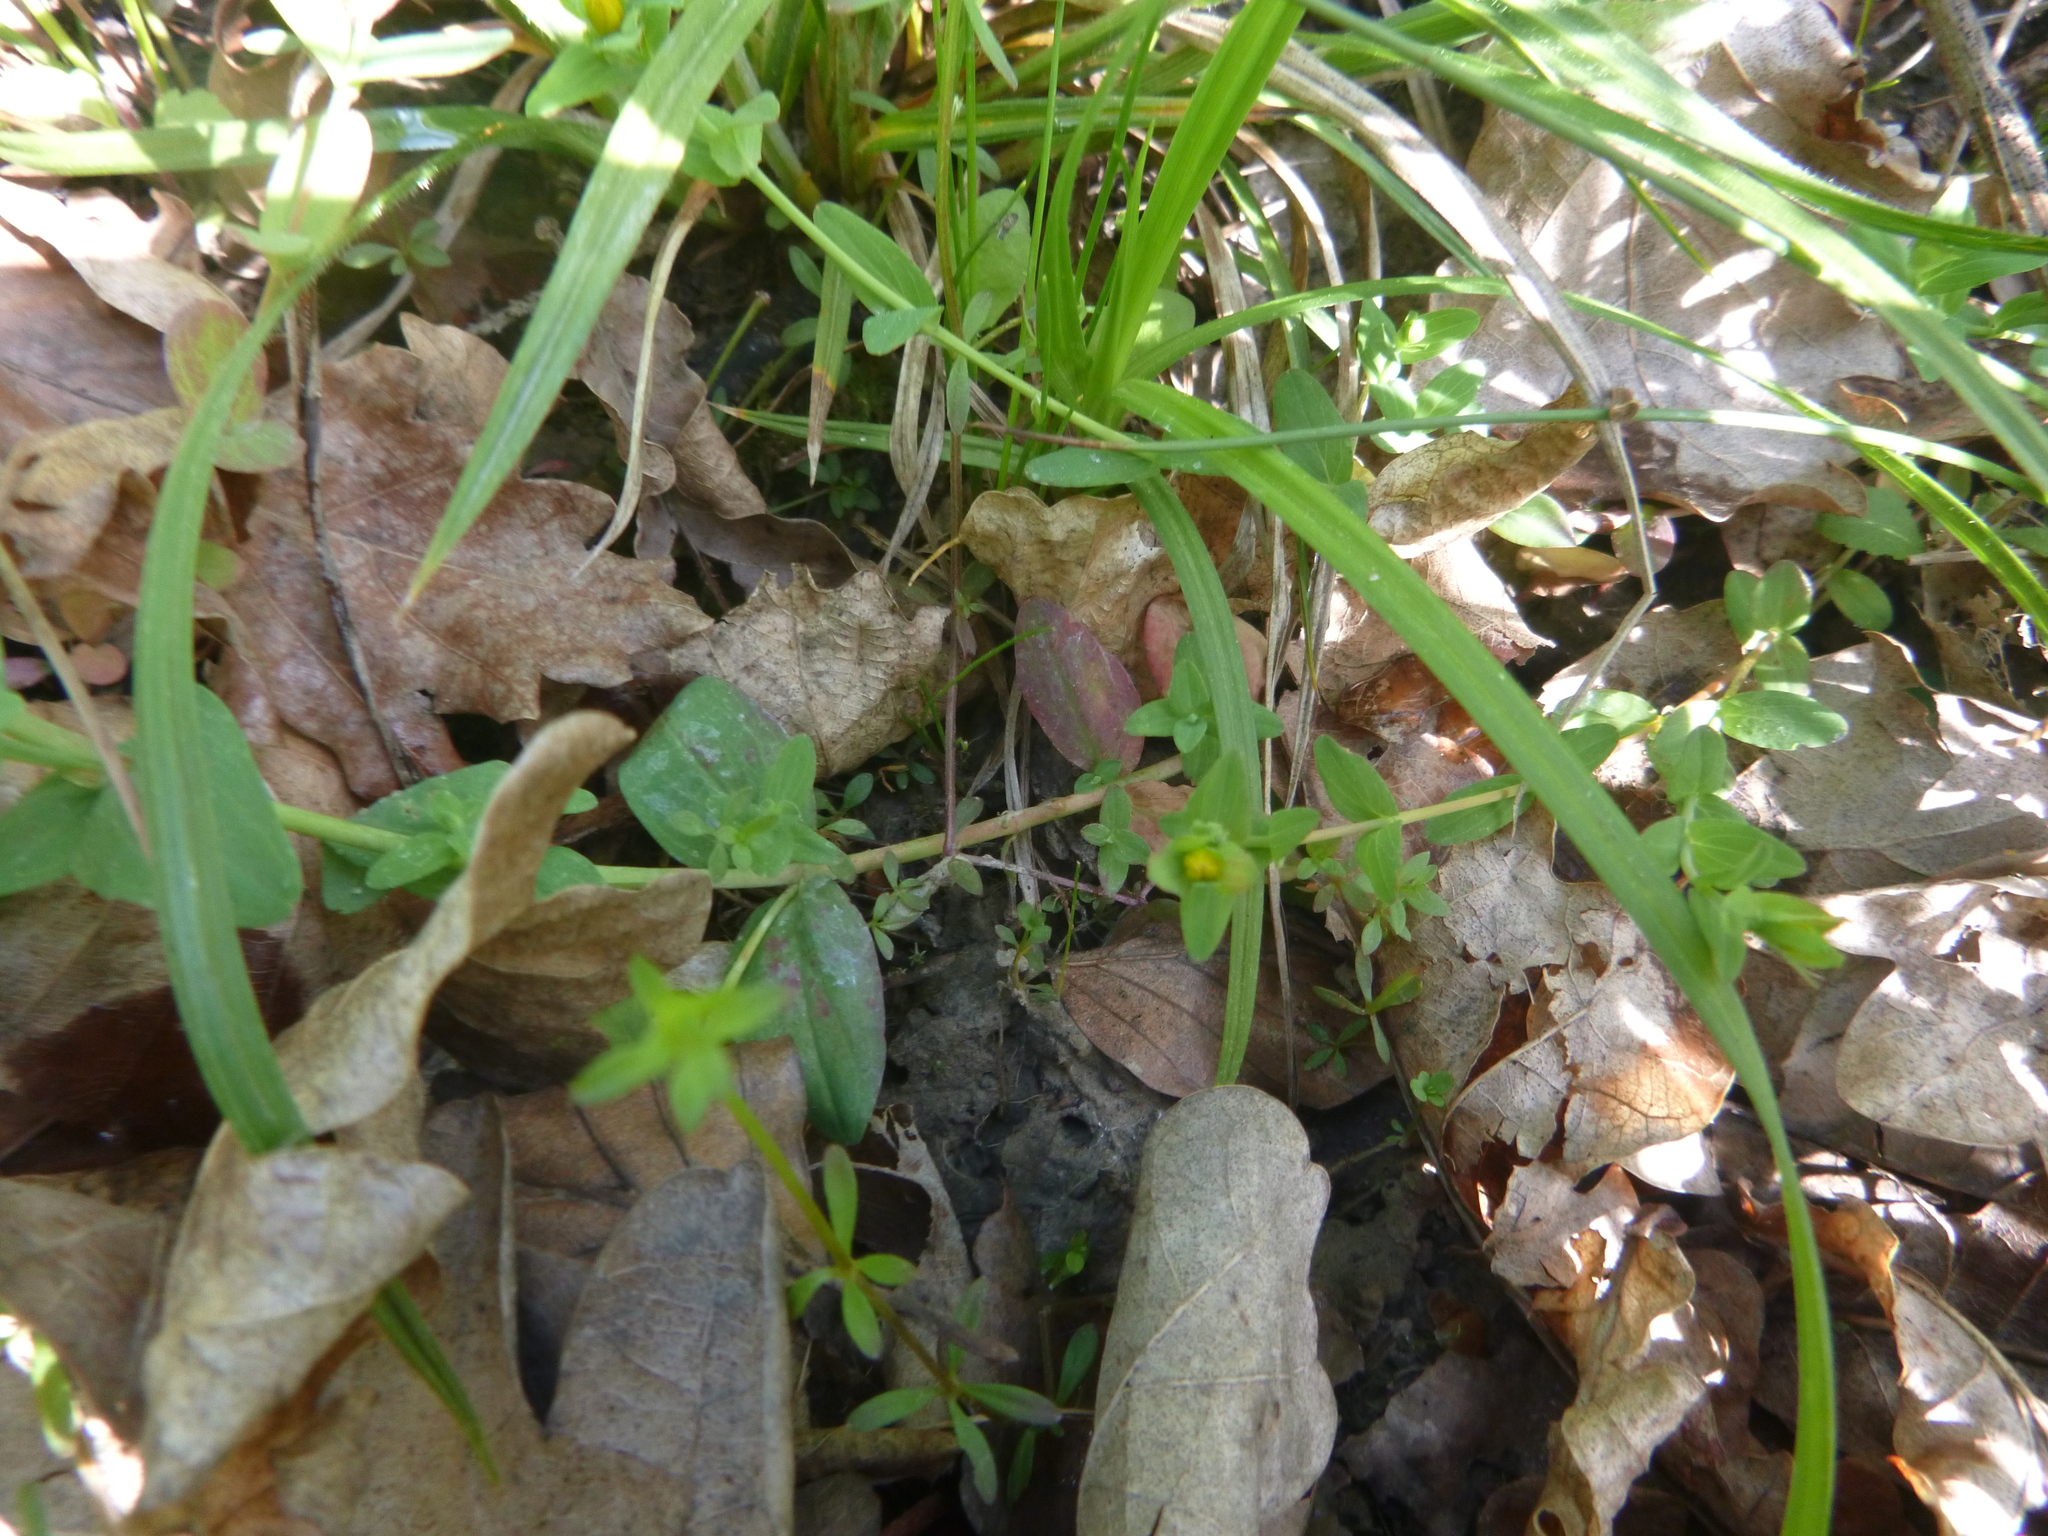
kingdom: Plantae
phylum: Tracheophyta
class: Magnoliopsida
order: Malpighiales
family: Hypericaceae
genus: Hypericum
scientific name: Hypericum humifusum
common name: Trailing st. john's-wort
